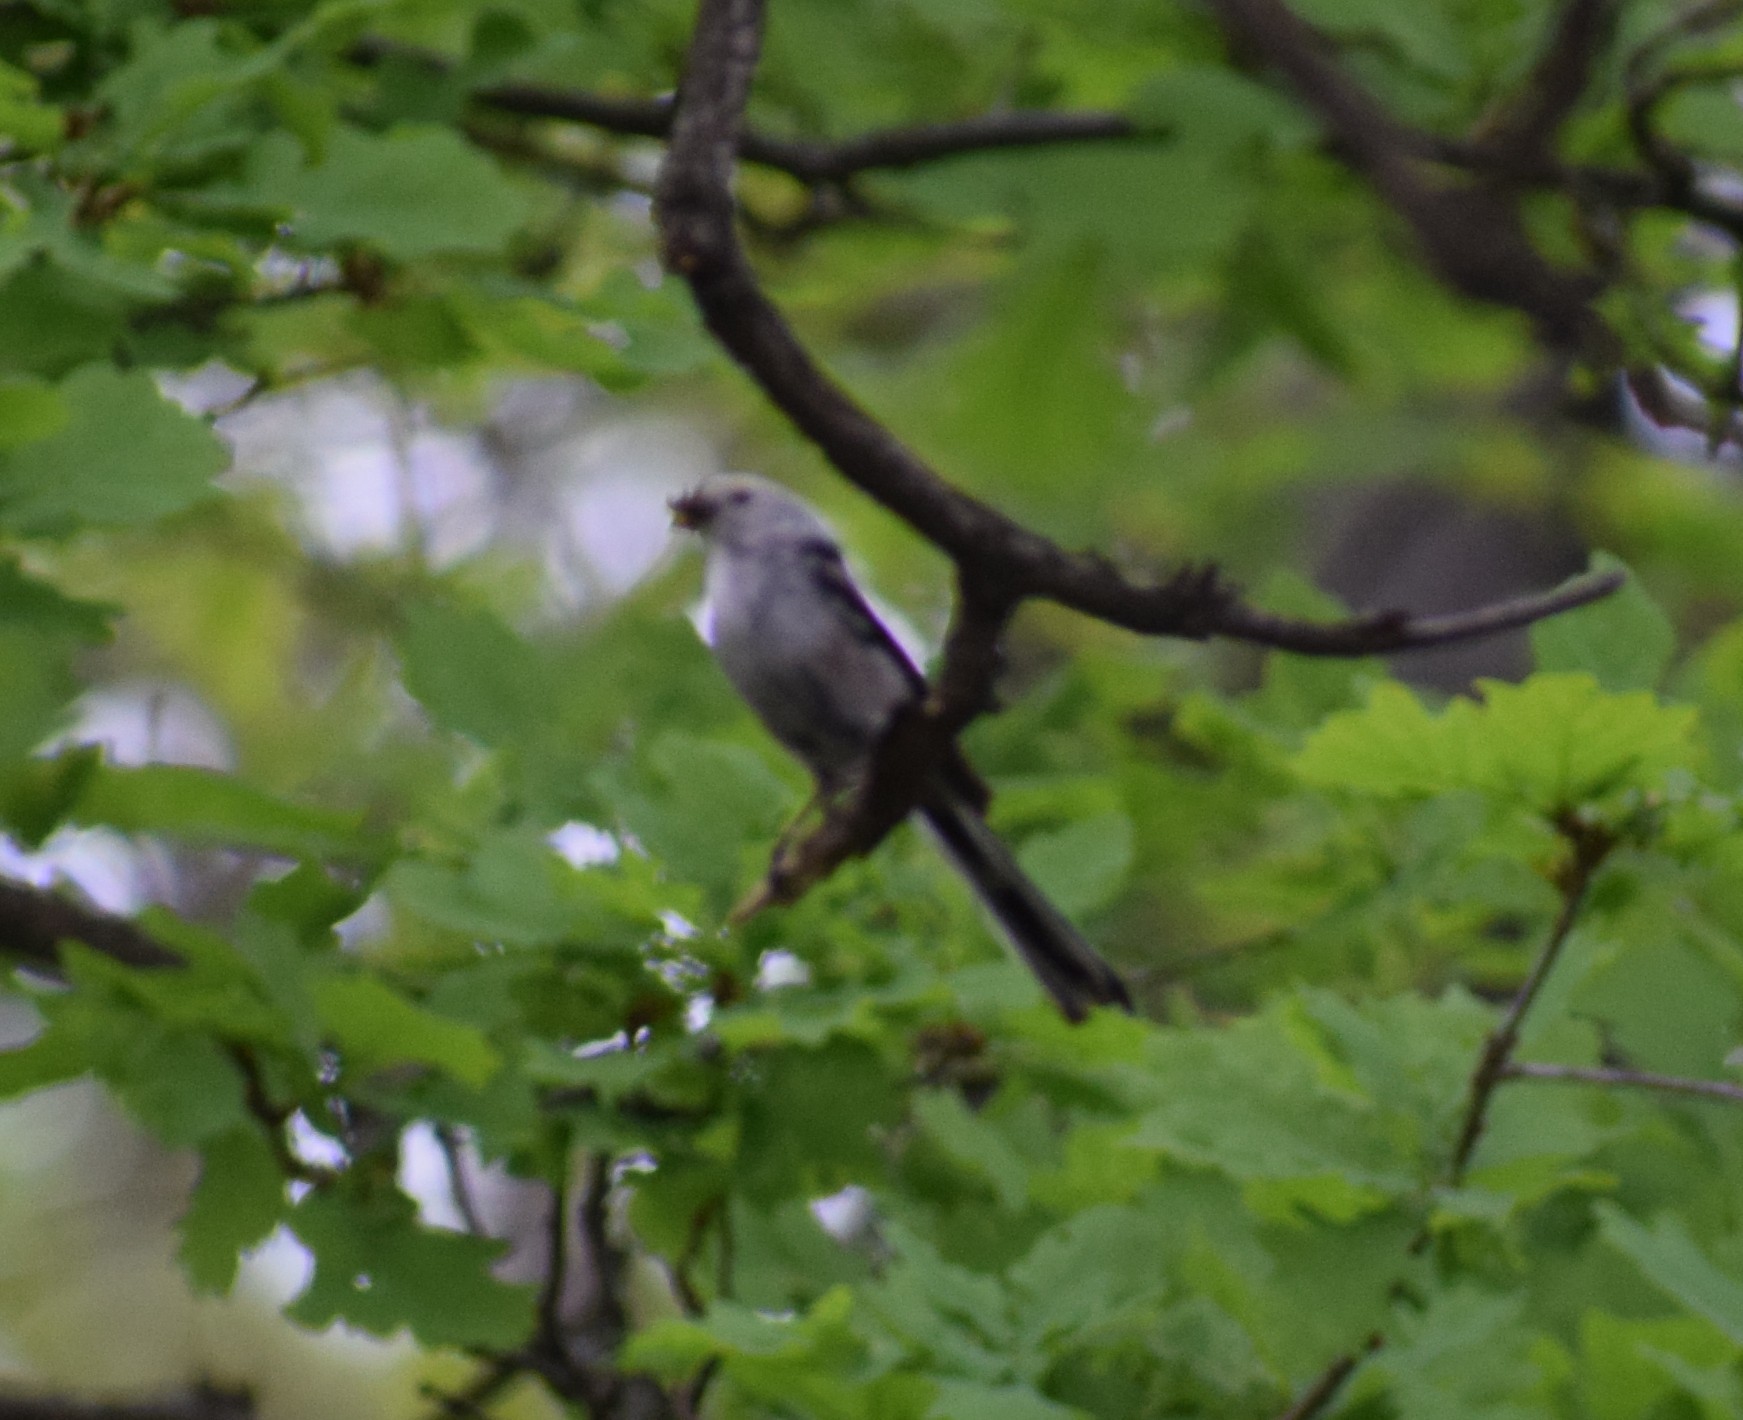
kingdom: Animalia
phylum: Chordata
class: Aves
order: Passeriformes
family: Aegithalidae
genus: Aegithalos
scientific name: Aegithalos caudatus
